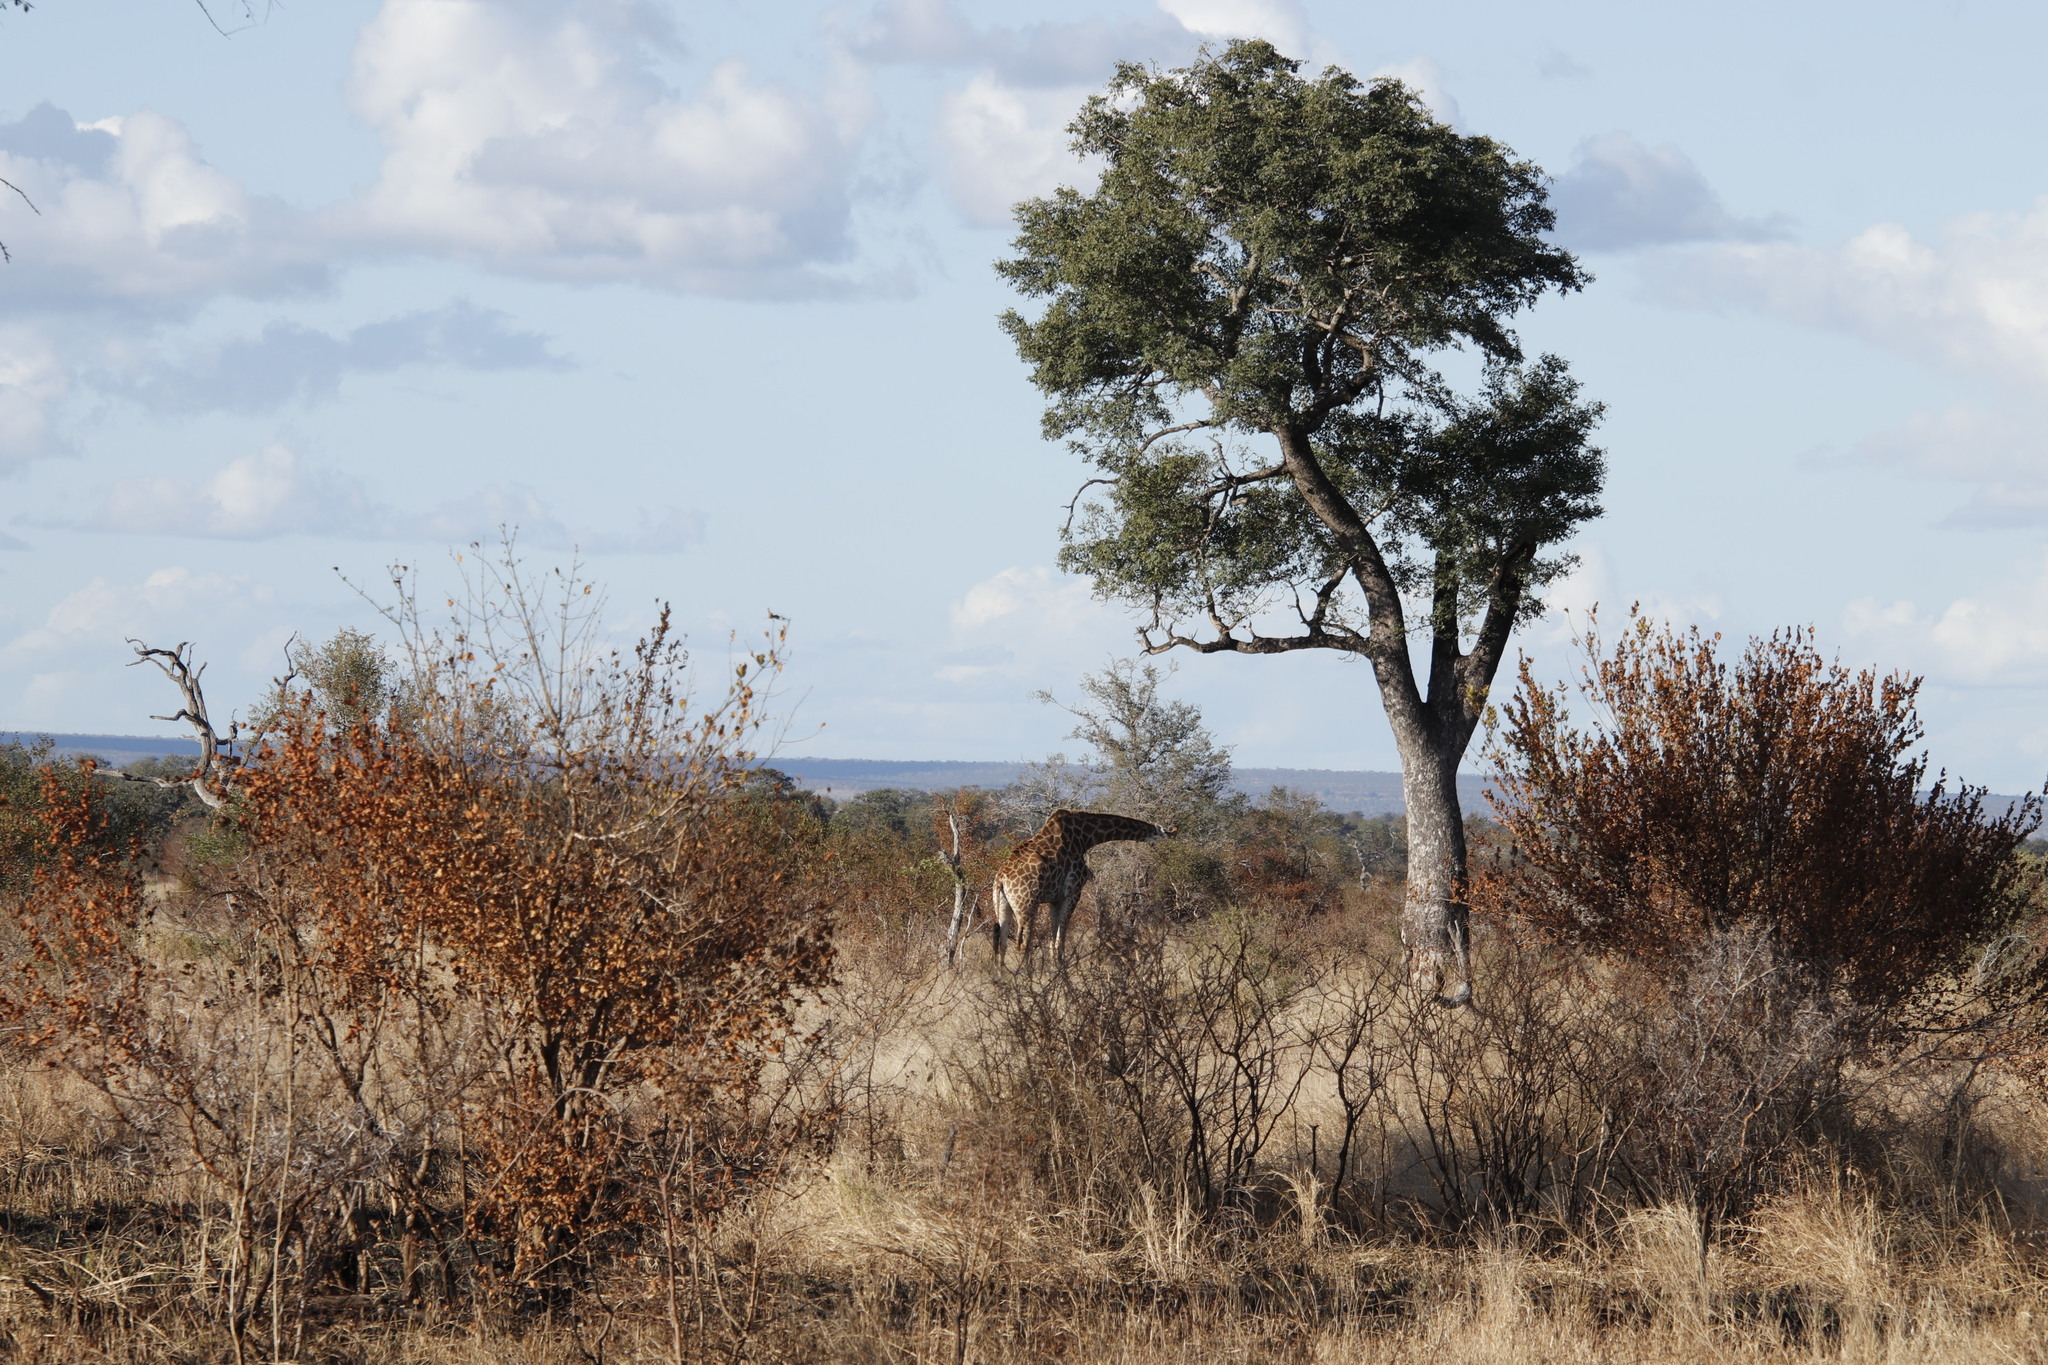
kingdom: Plantae
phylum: Tracheophyta
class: Magnoliopsida
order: Sapindales
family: Anacardiaceae
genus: Sclerocarya
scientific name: Sclerocarya birrea
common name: Marula
